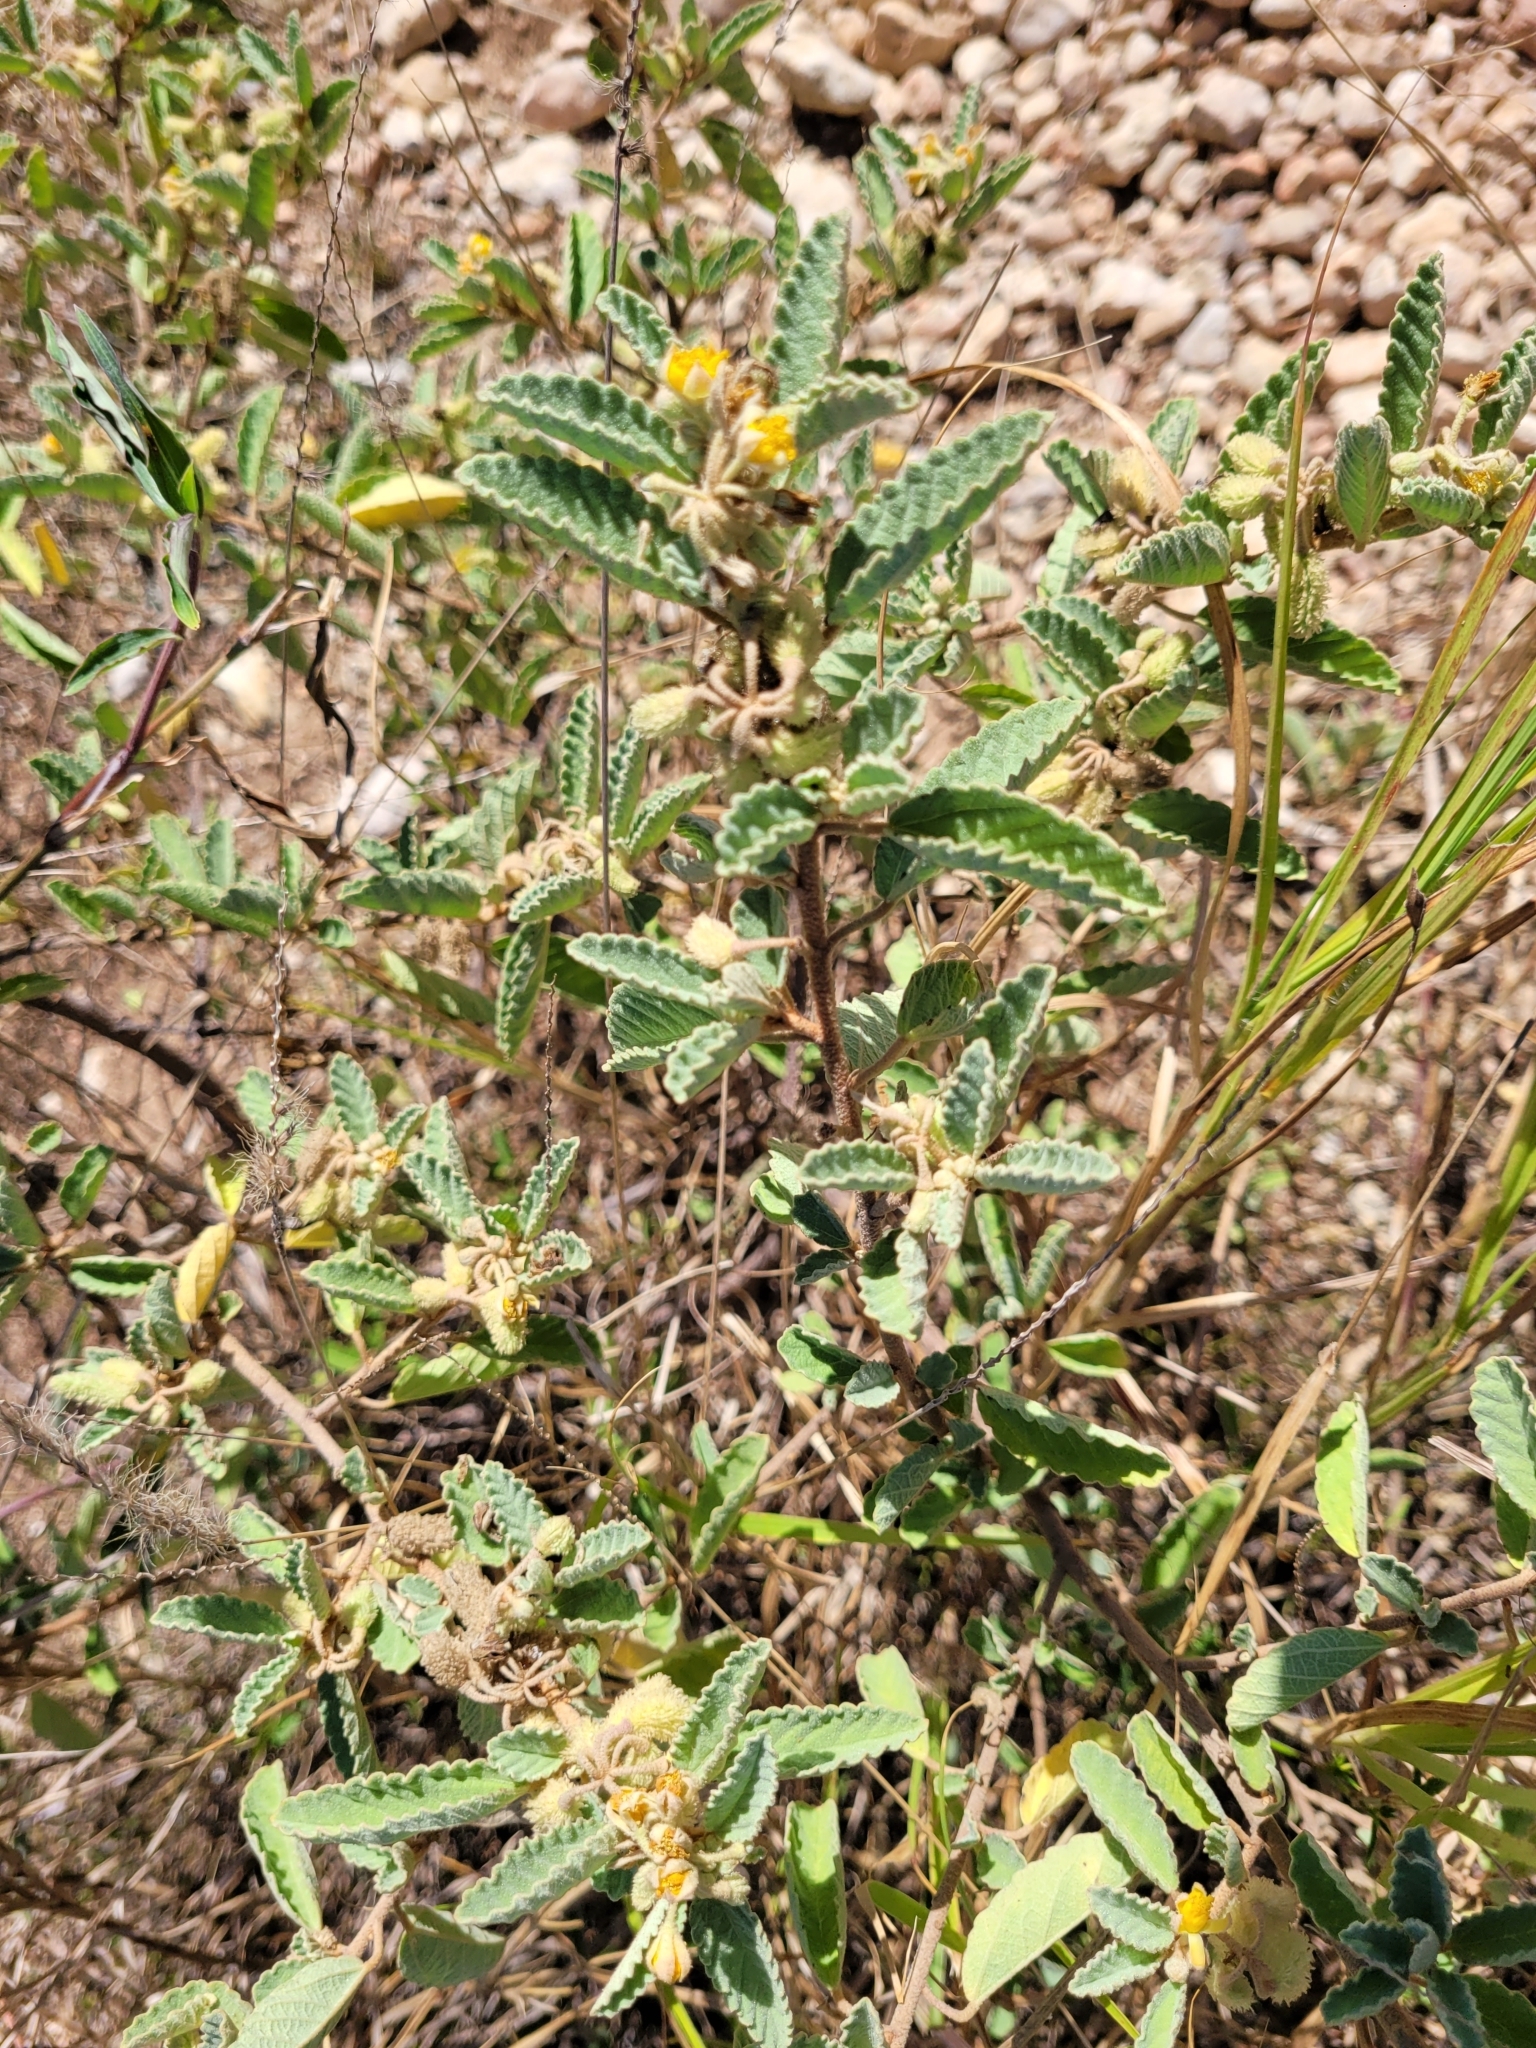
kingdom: Plantae
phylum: Tracheophyta
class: Magnoliopsida
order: Malvales
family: Malvaceae
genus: Corchorus
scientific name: Corchorus hirsutus
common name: Jackswitch
